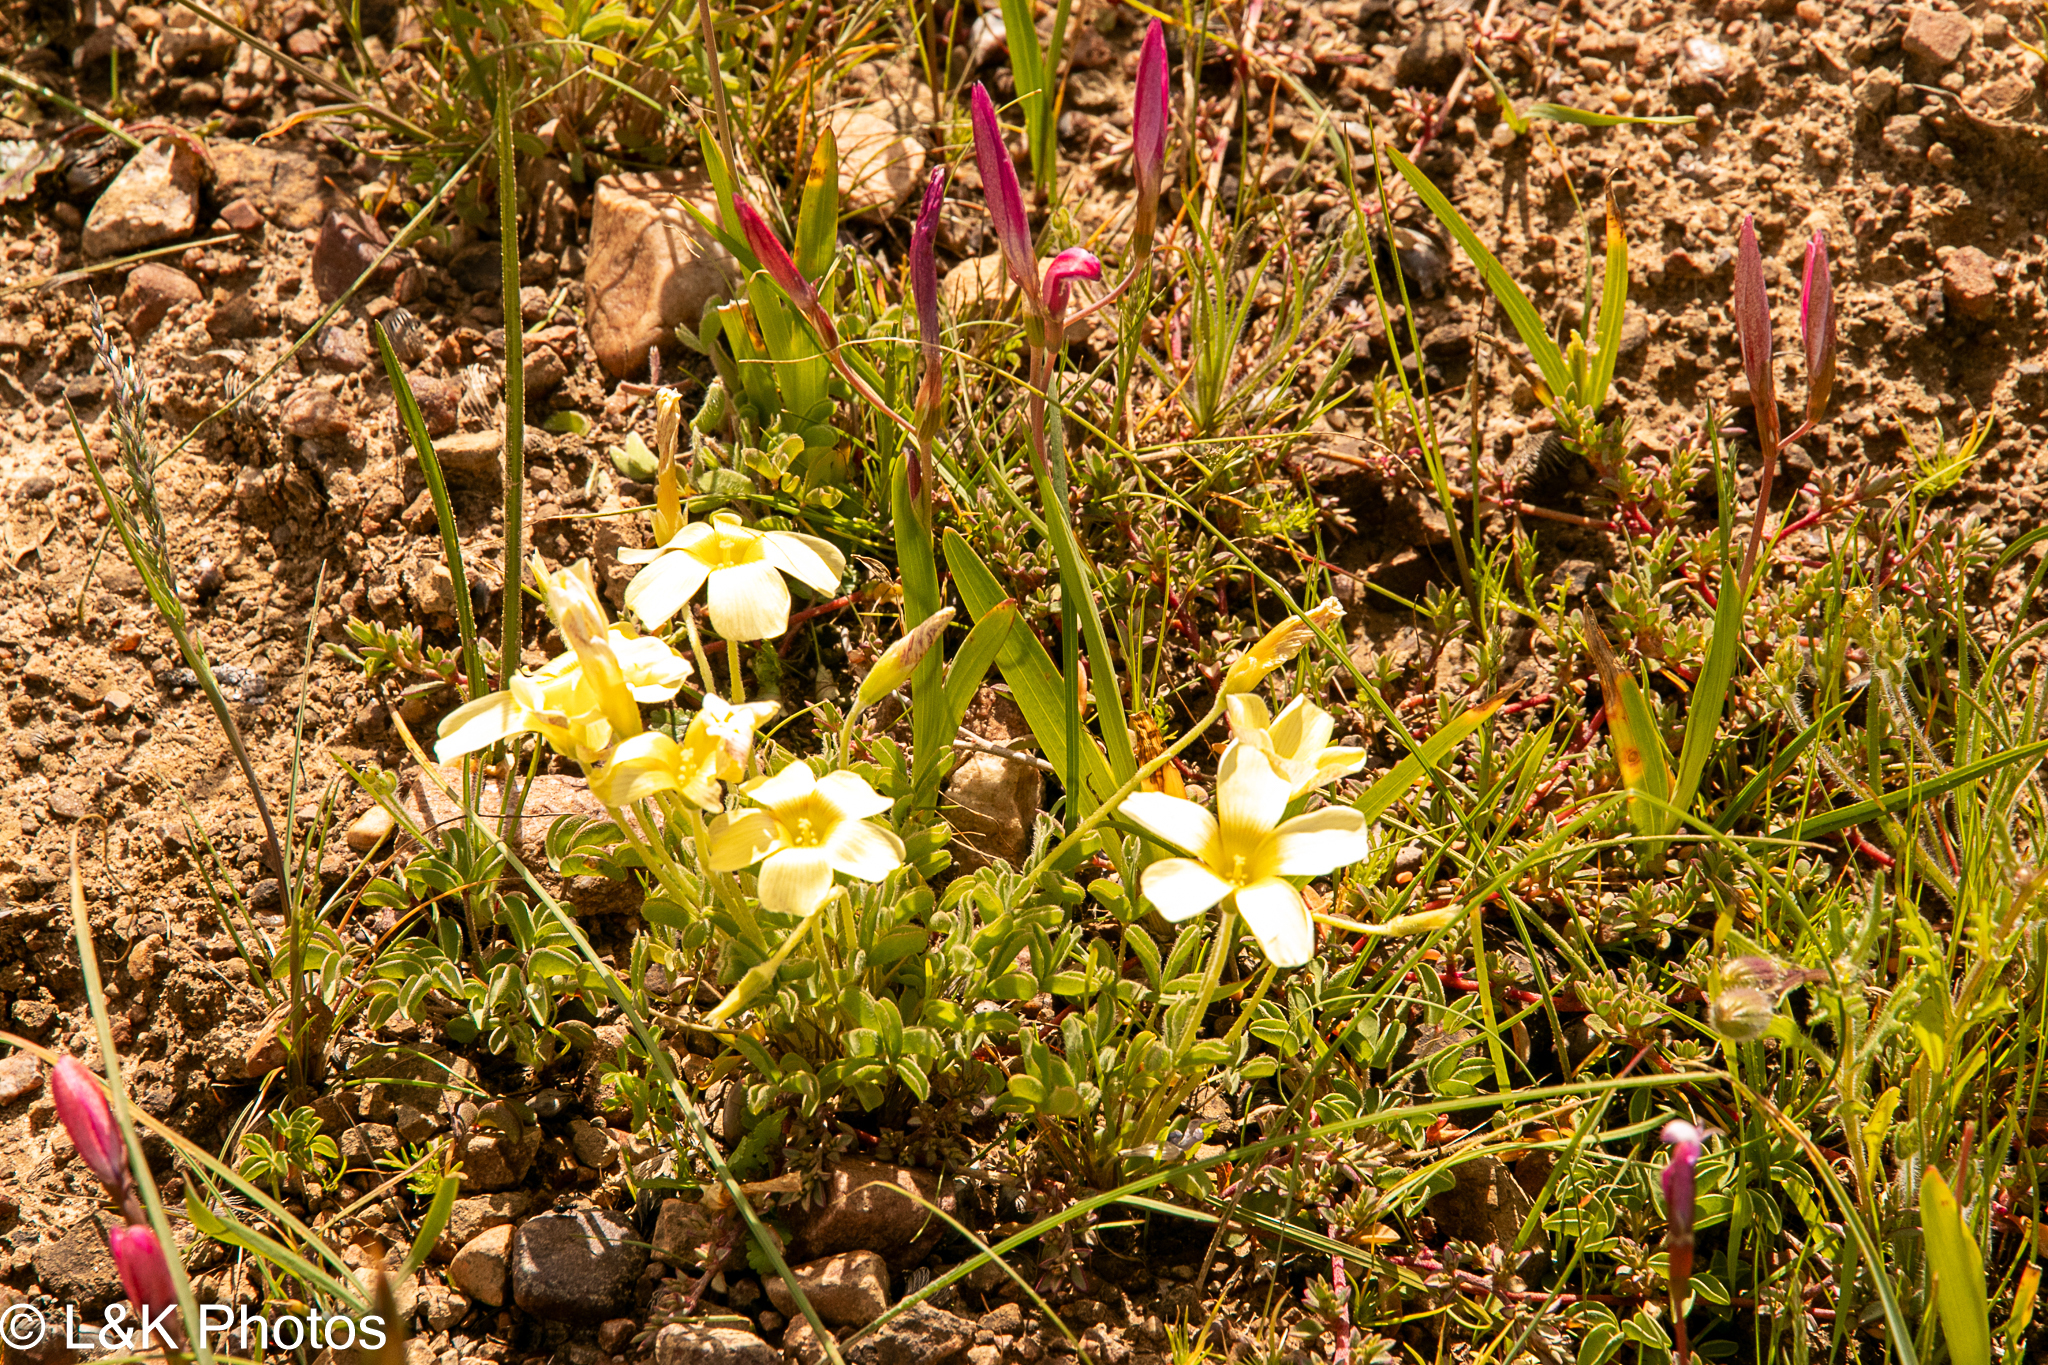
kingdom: Plantae
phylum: Tracheophyta
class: Magnoliopsida
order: Oxalidales
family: Oxalidaceae
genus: Oxalis
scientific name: Oxalis obtusa
